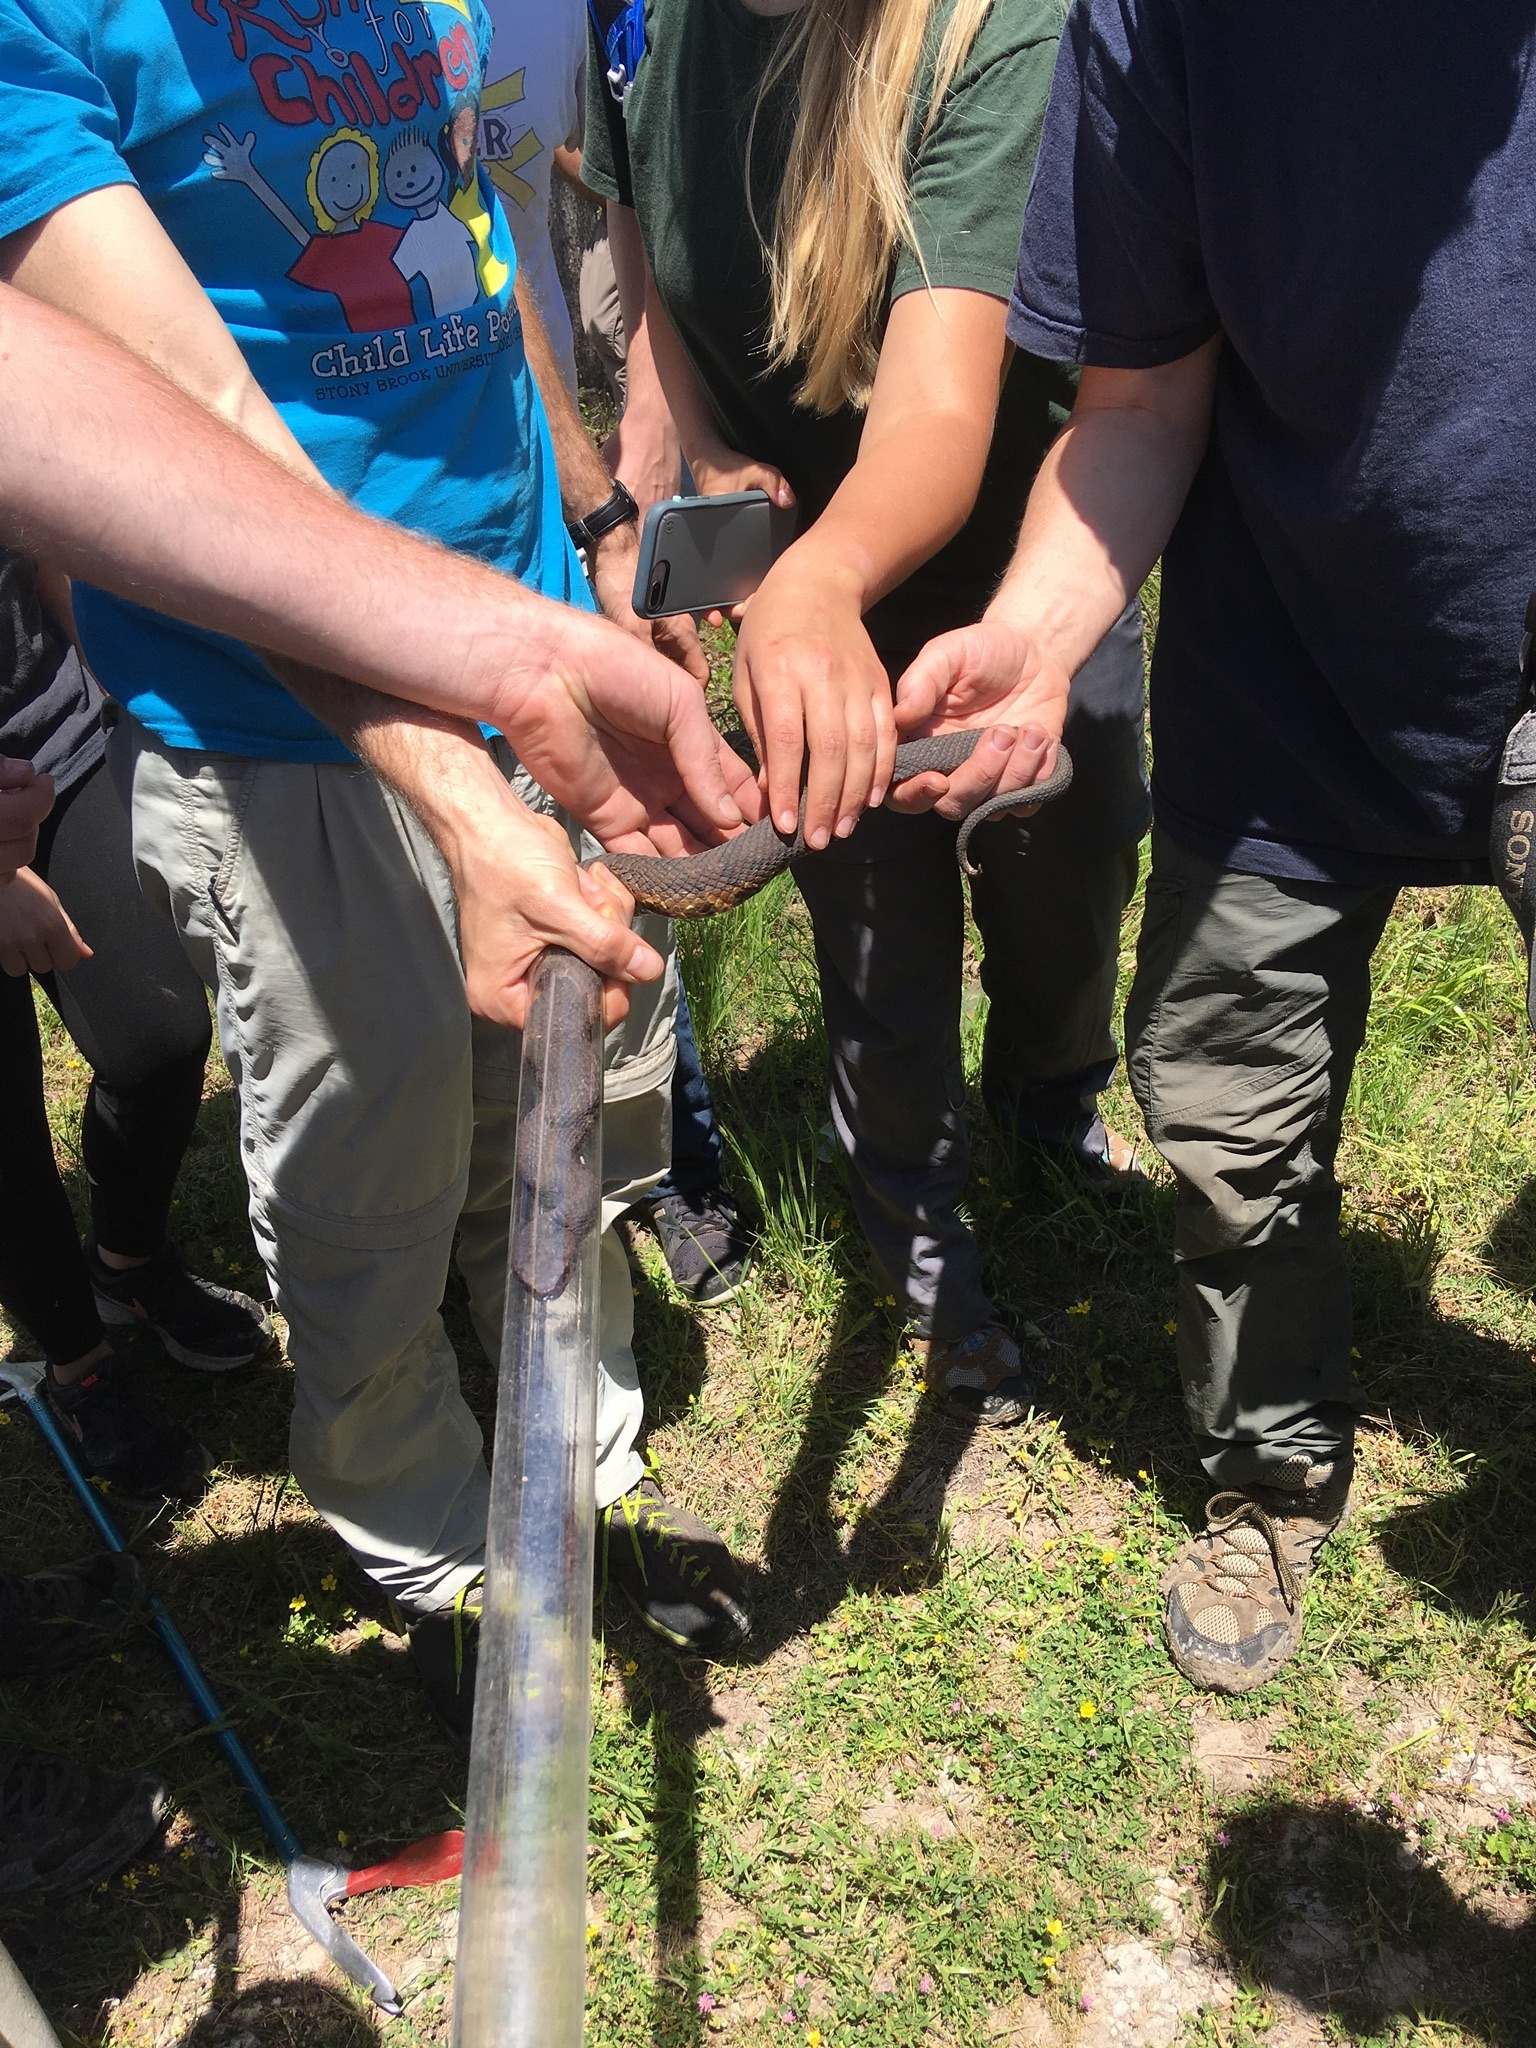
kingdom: Animalia
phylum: Chordata
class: Squamata
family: Viperidae
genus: Agkistrodon
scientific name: Agkistrodon piscivorus
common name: Cottonmouth
